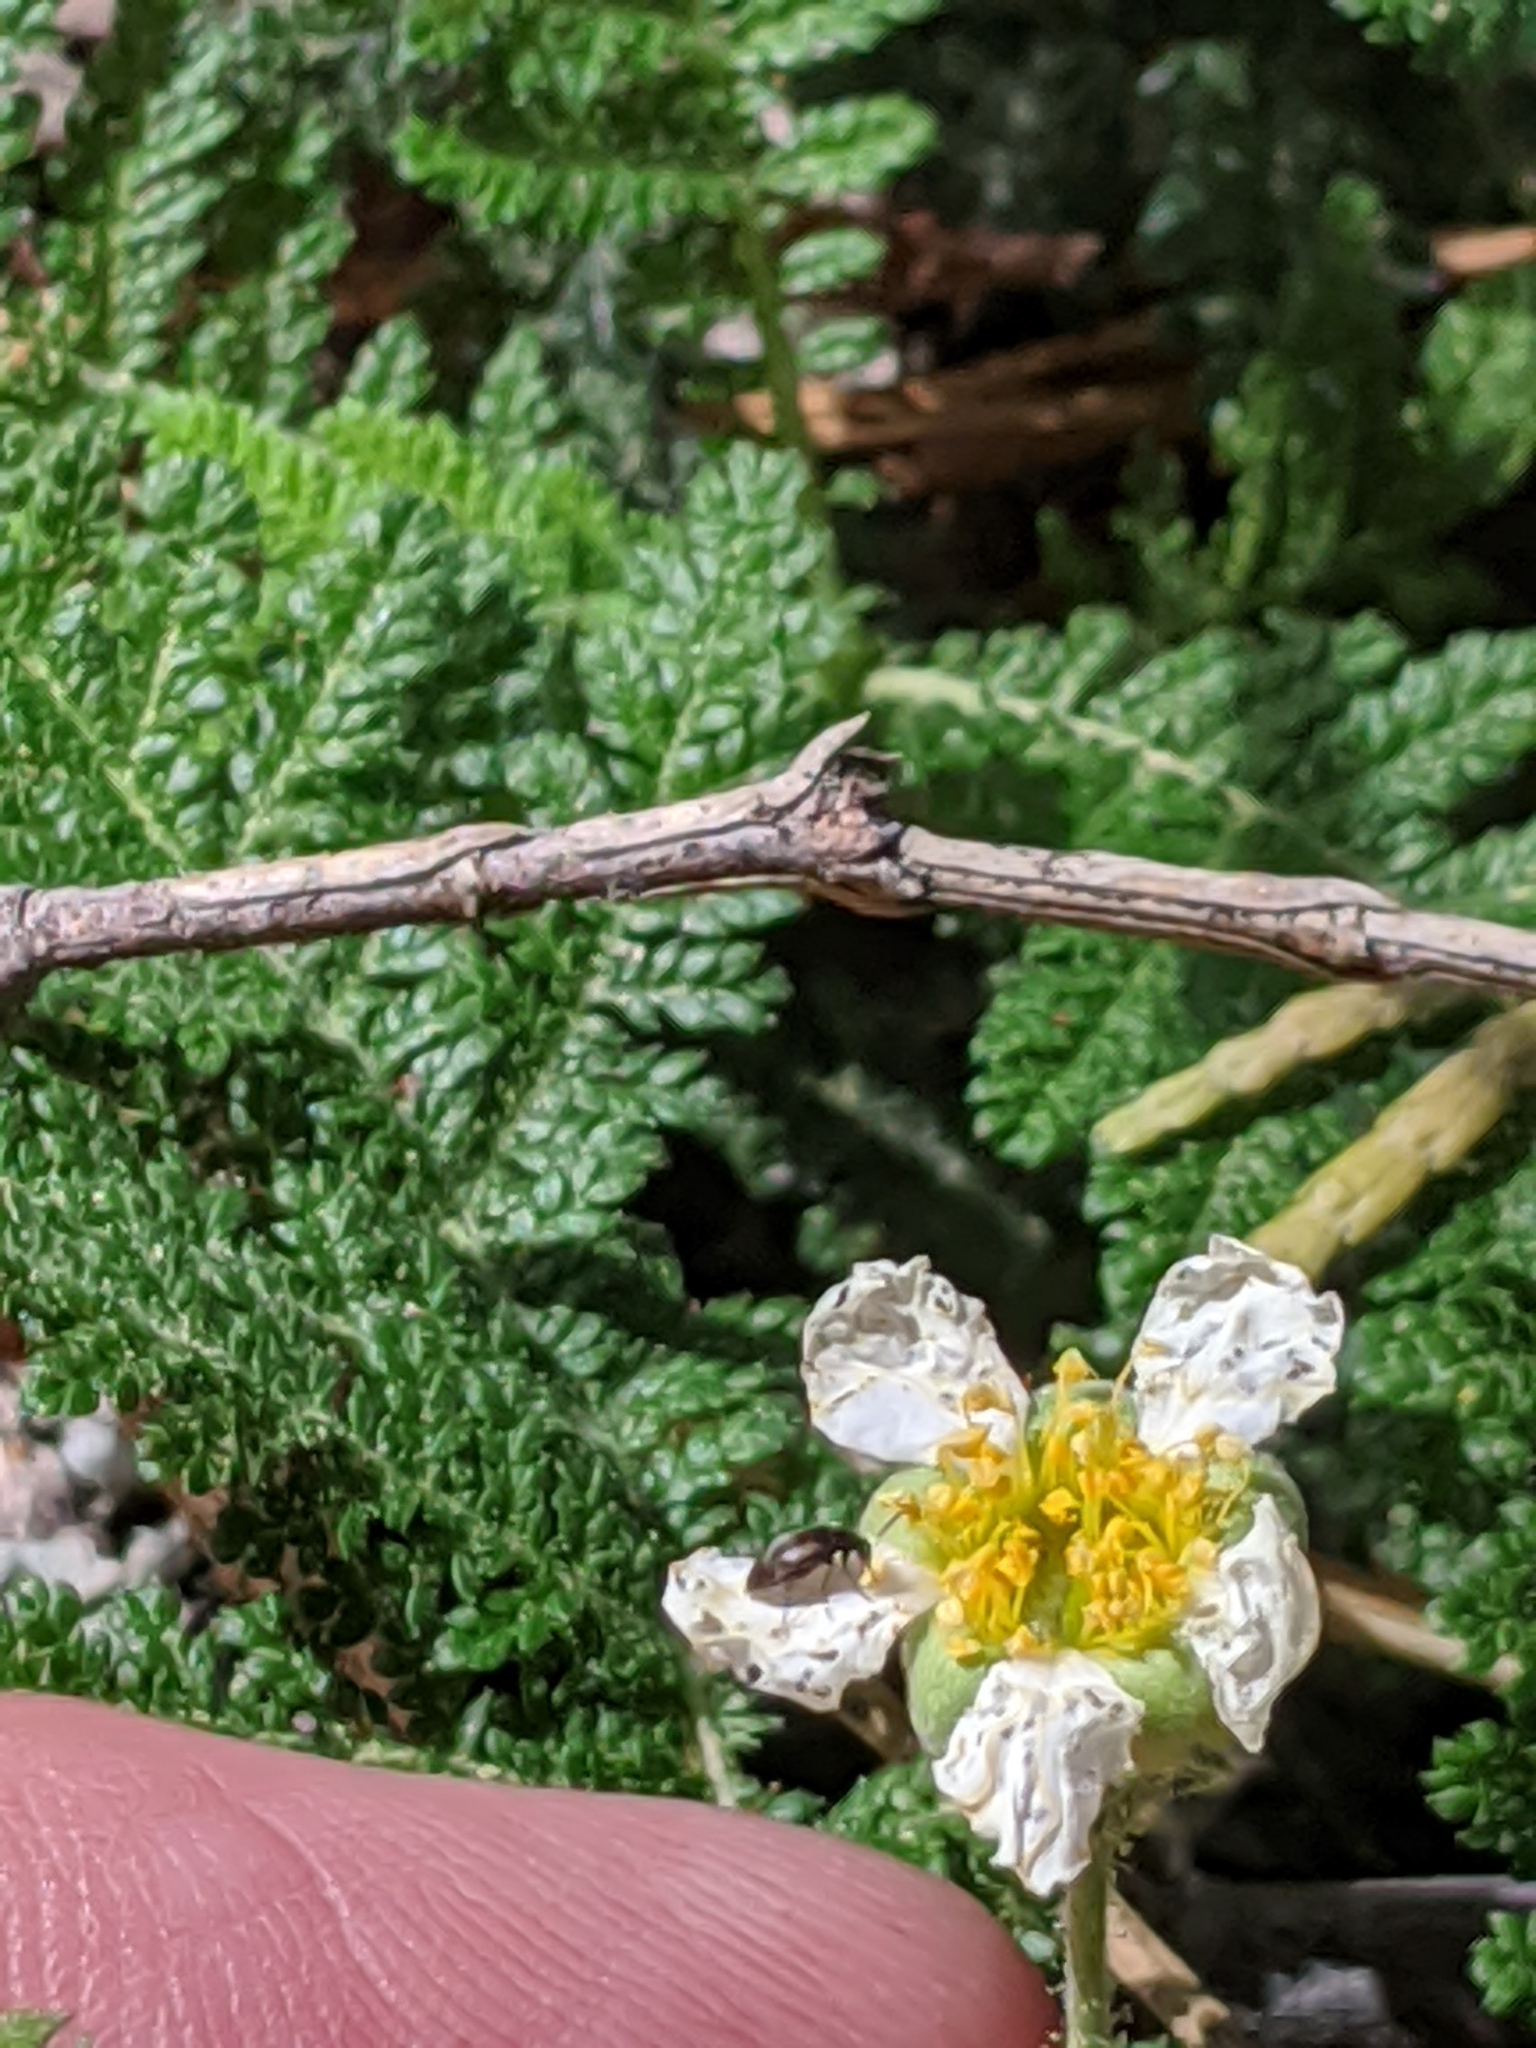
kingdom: Plantae
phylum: Tracheophyta
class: Magnoliopsida
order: Rosales
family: Rosaceae
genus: Chamaebatia
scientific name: Chamaebatia foliolosa
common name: Mountain misery
